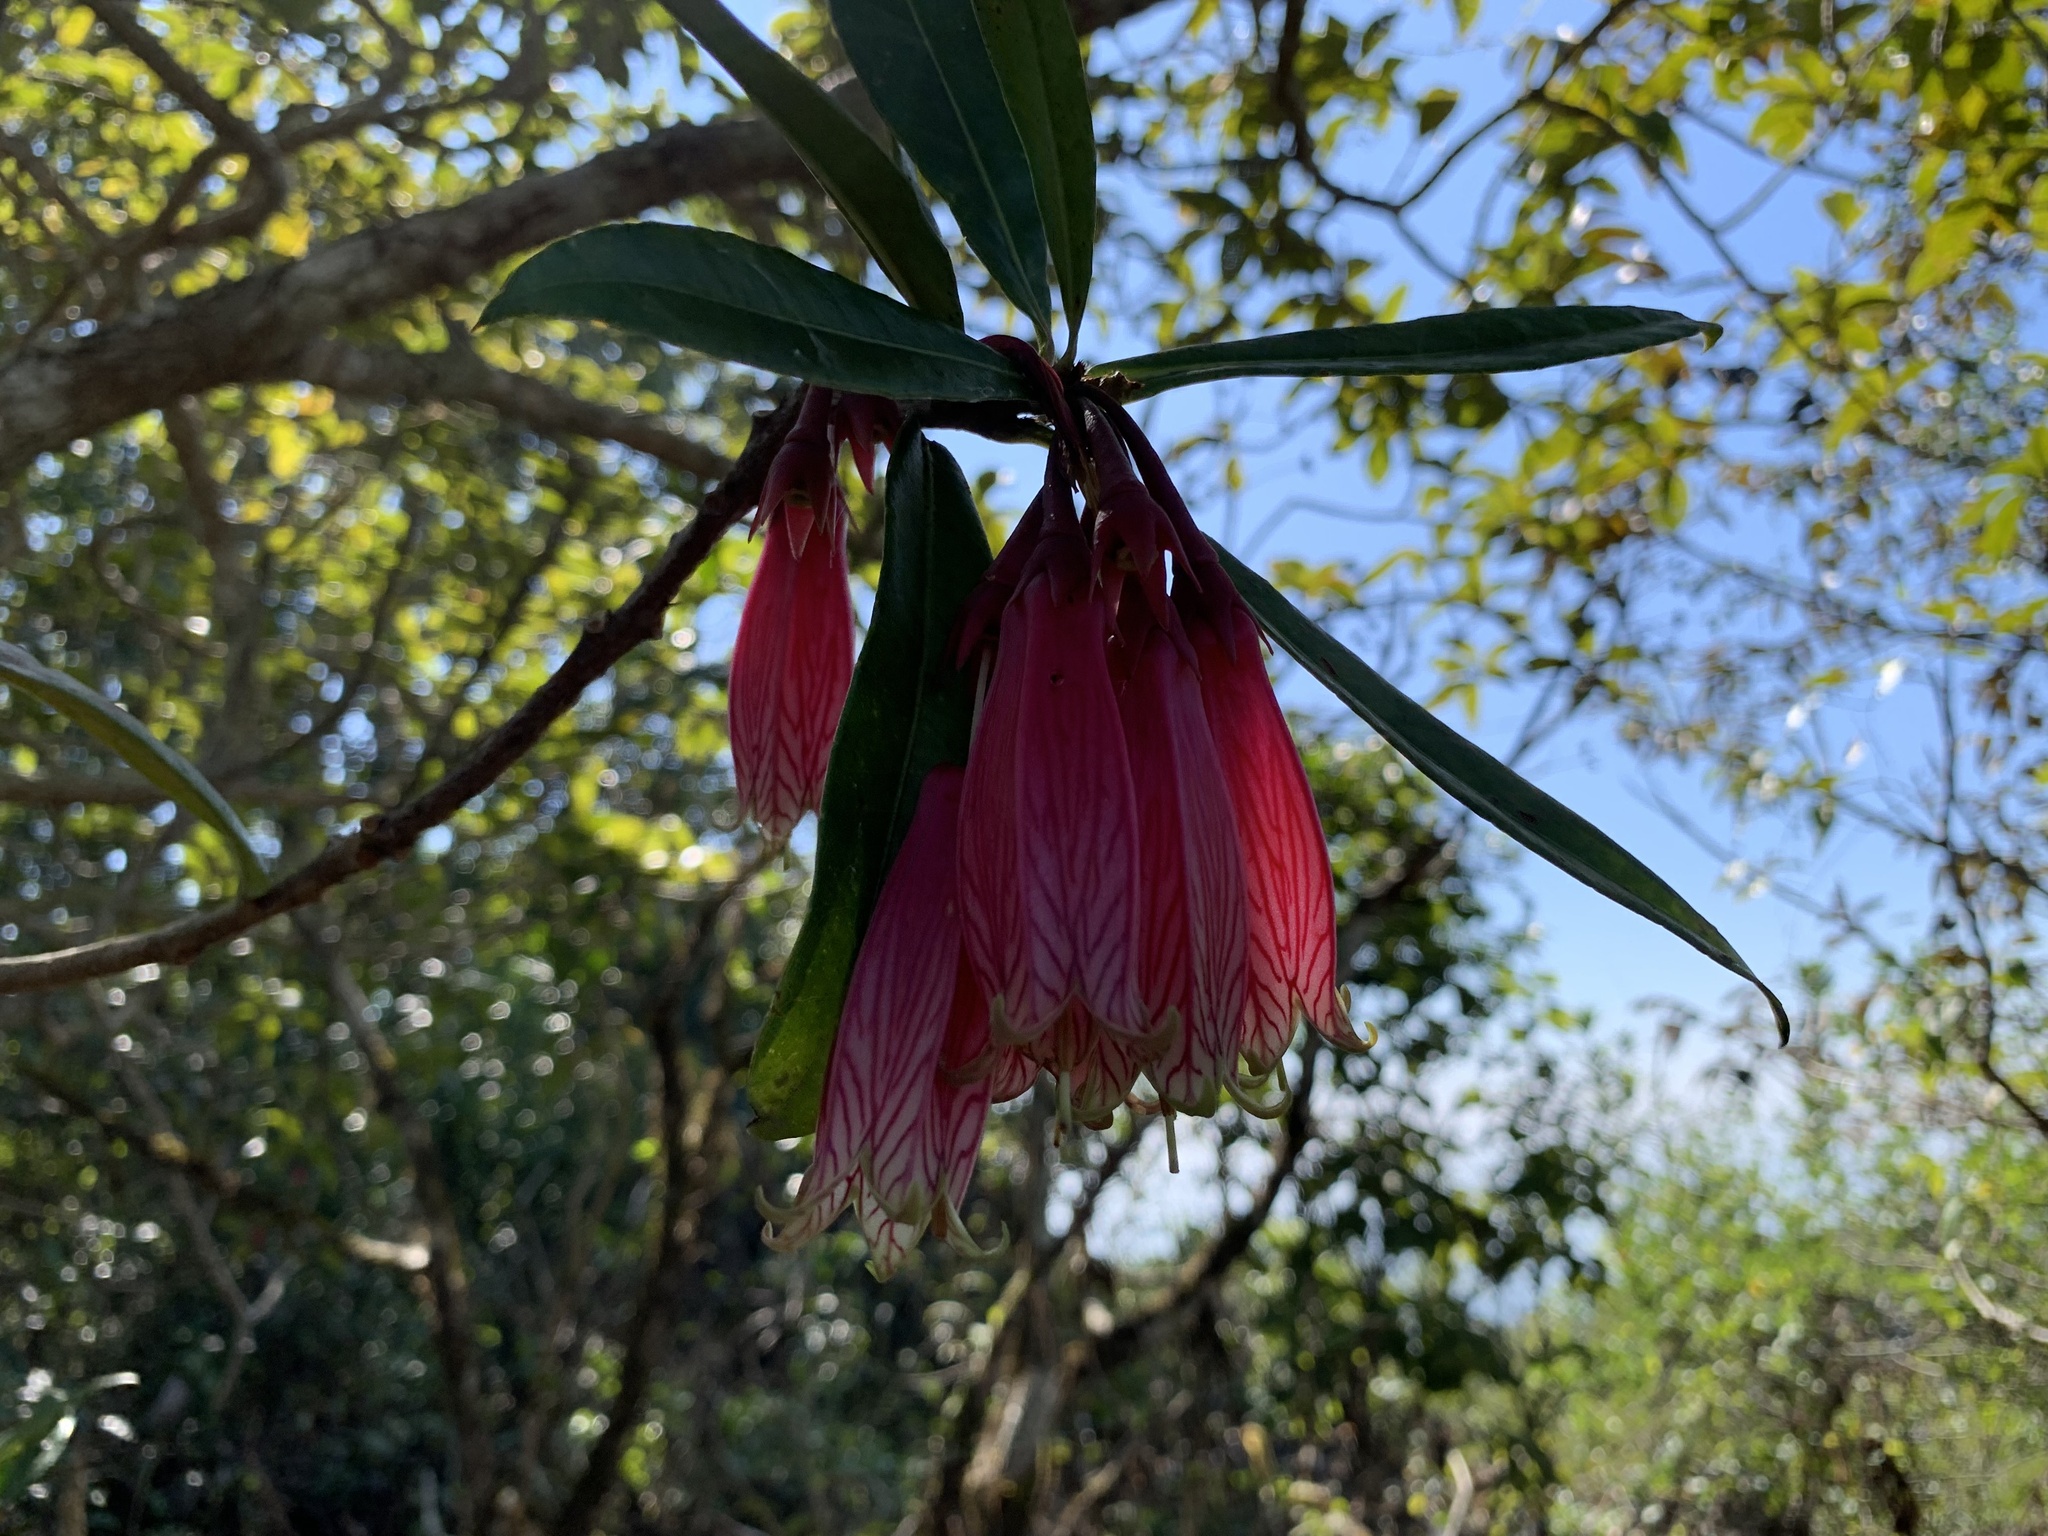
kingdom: Plantae
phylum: Tracheophyta
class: Magnoliopsida
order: Ericales
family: Ericaceae
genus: Agapetes
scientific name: Agapetes megacarpa
